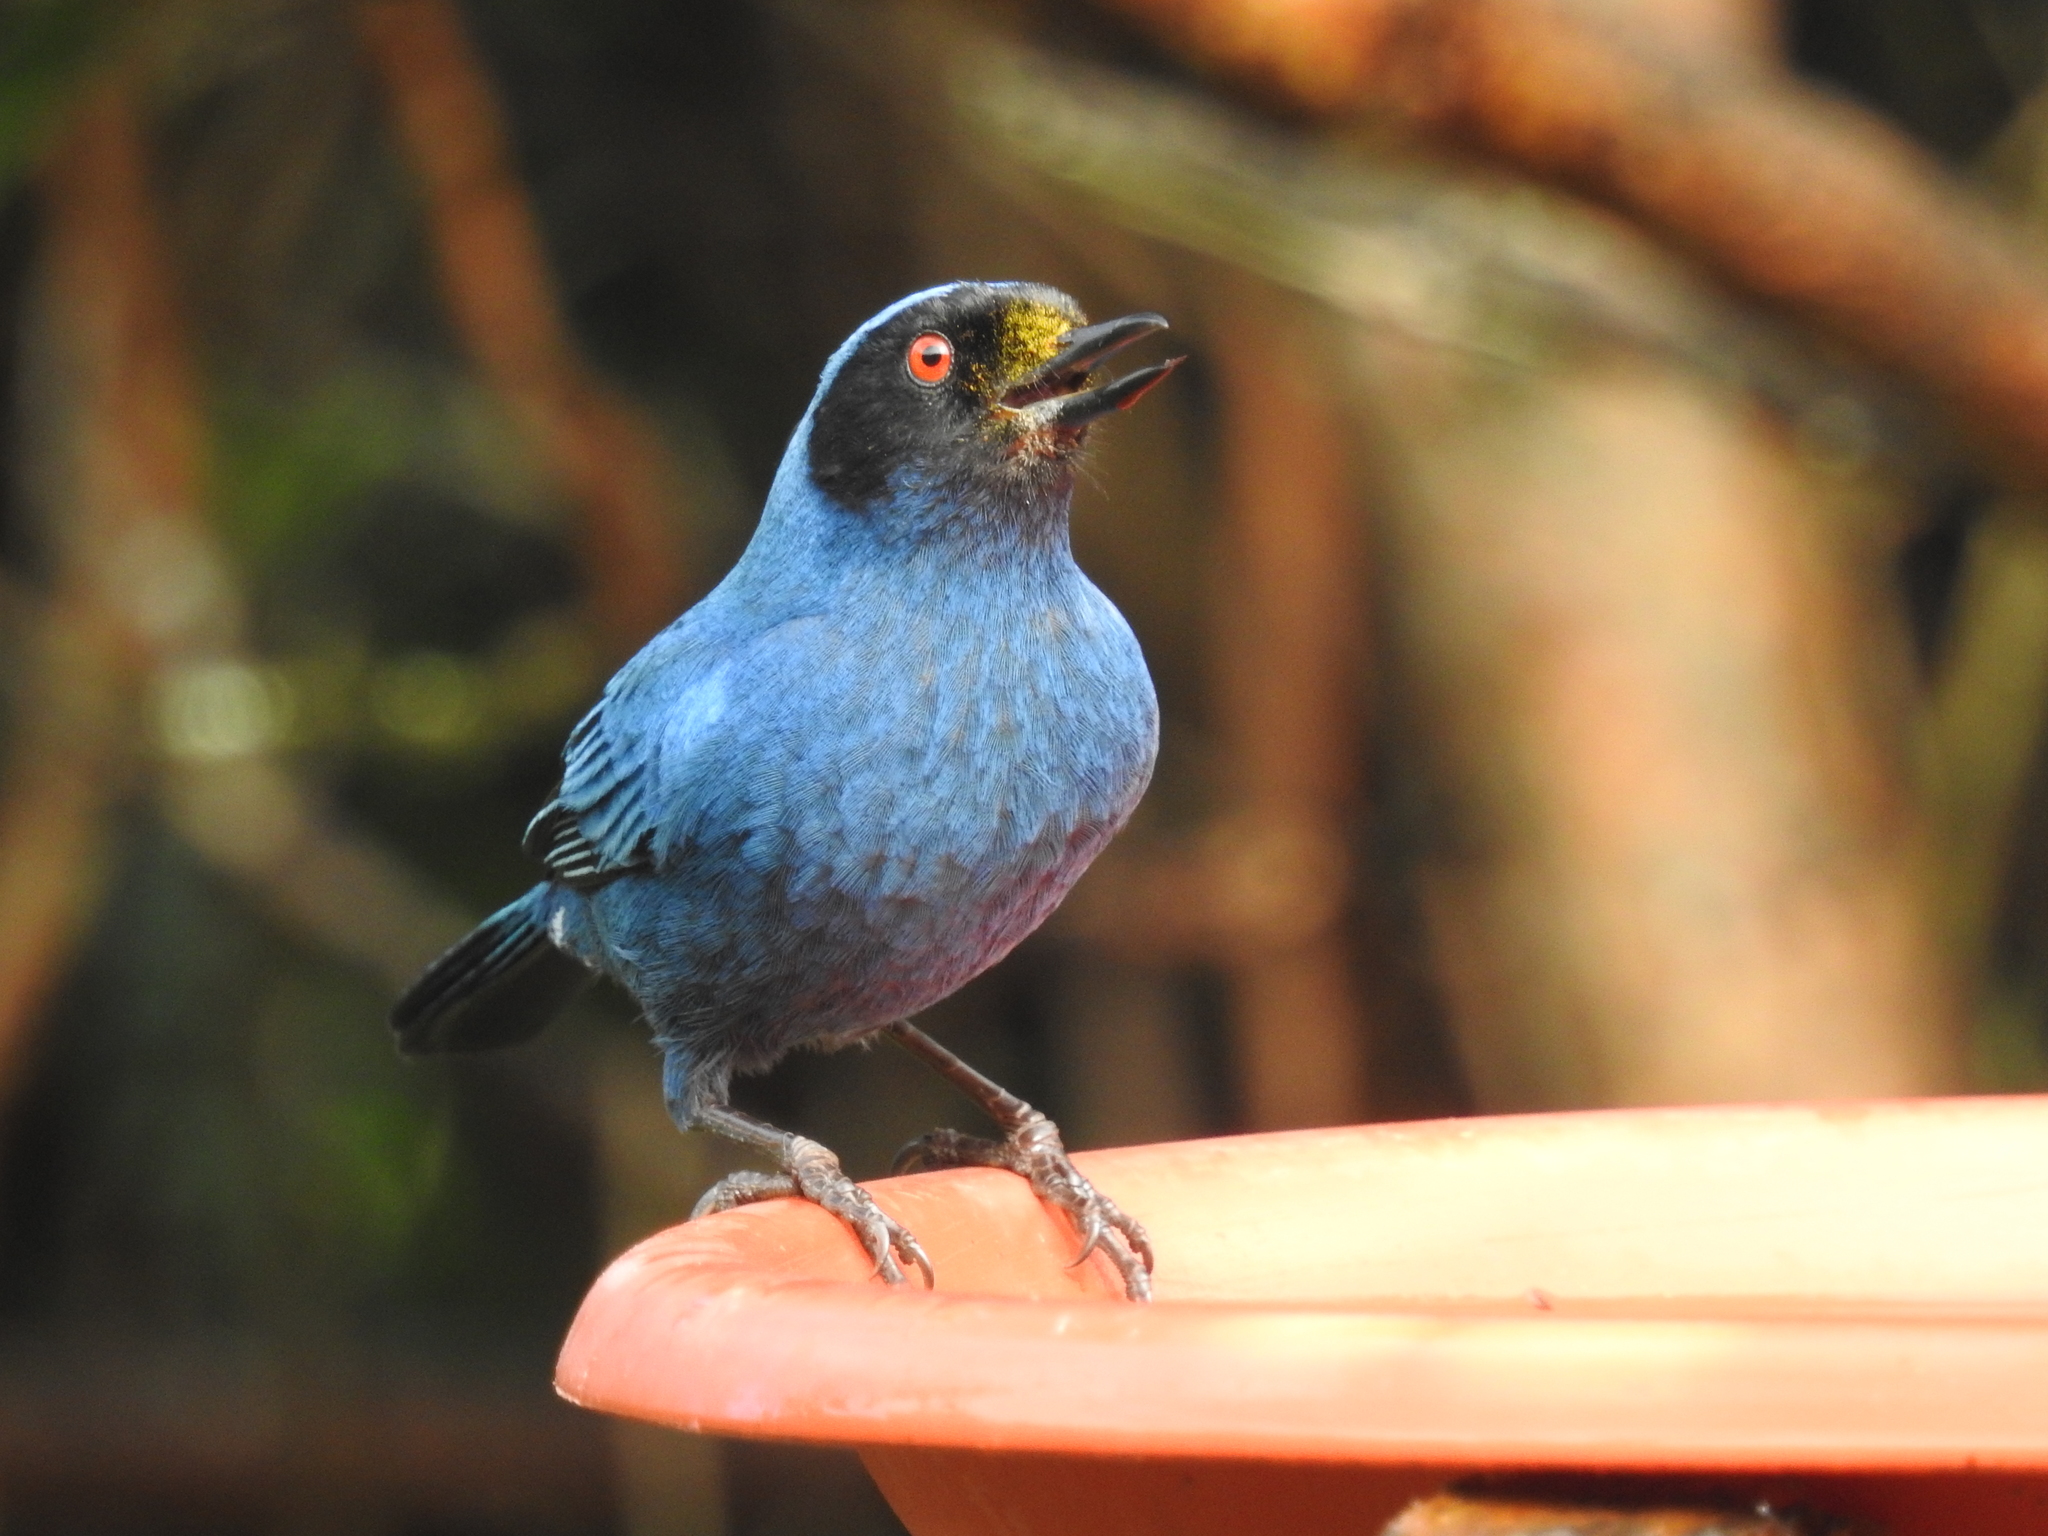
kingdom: Animalia
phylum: Chordata
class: Aves
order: Passeriformes
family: Thraupidae
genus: Diglossa
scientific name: Diglossa cyanea
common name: Masked flowerpiercer
